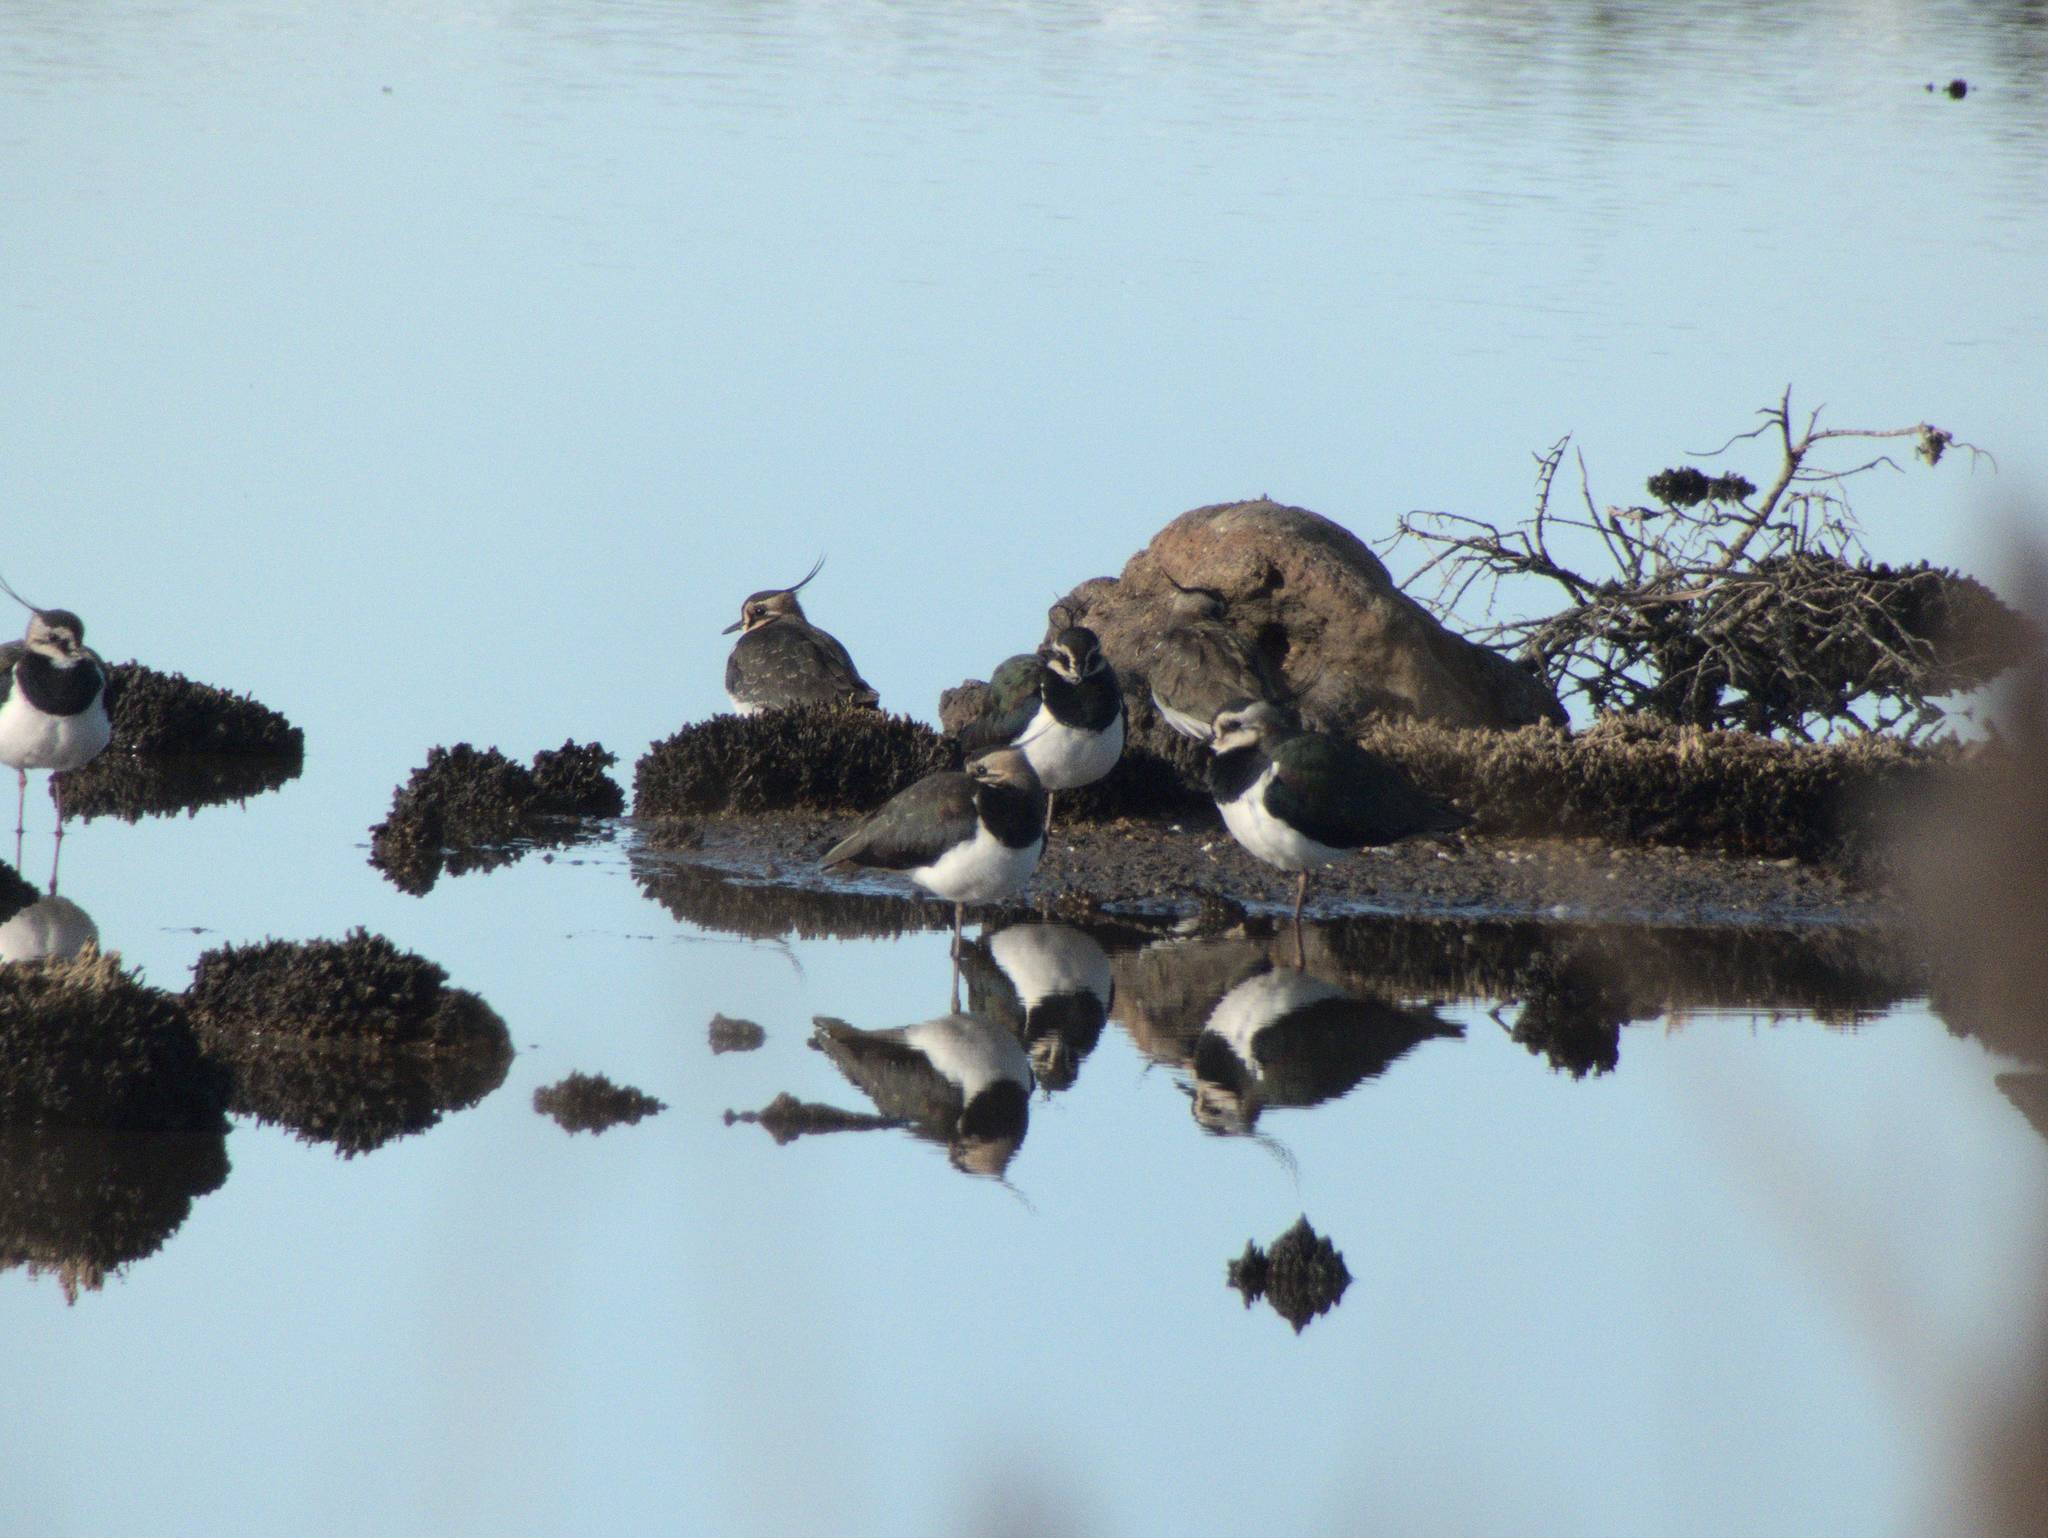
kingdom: Animalia
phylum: Chordata
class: Aves
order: Charadriiformes
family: Charadriidae
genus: Vanellus
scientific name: Vanellus vanellus
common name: Northern lapwing
